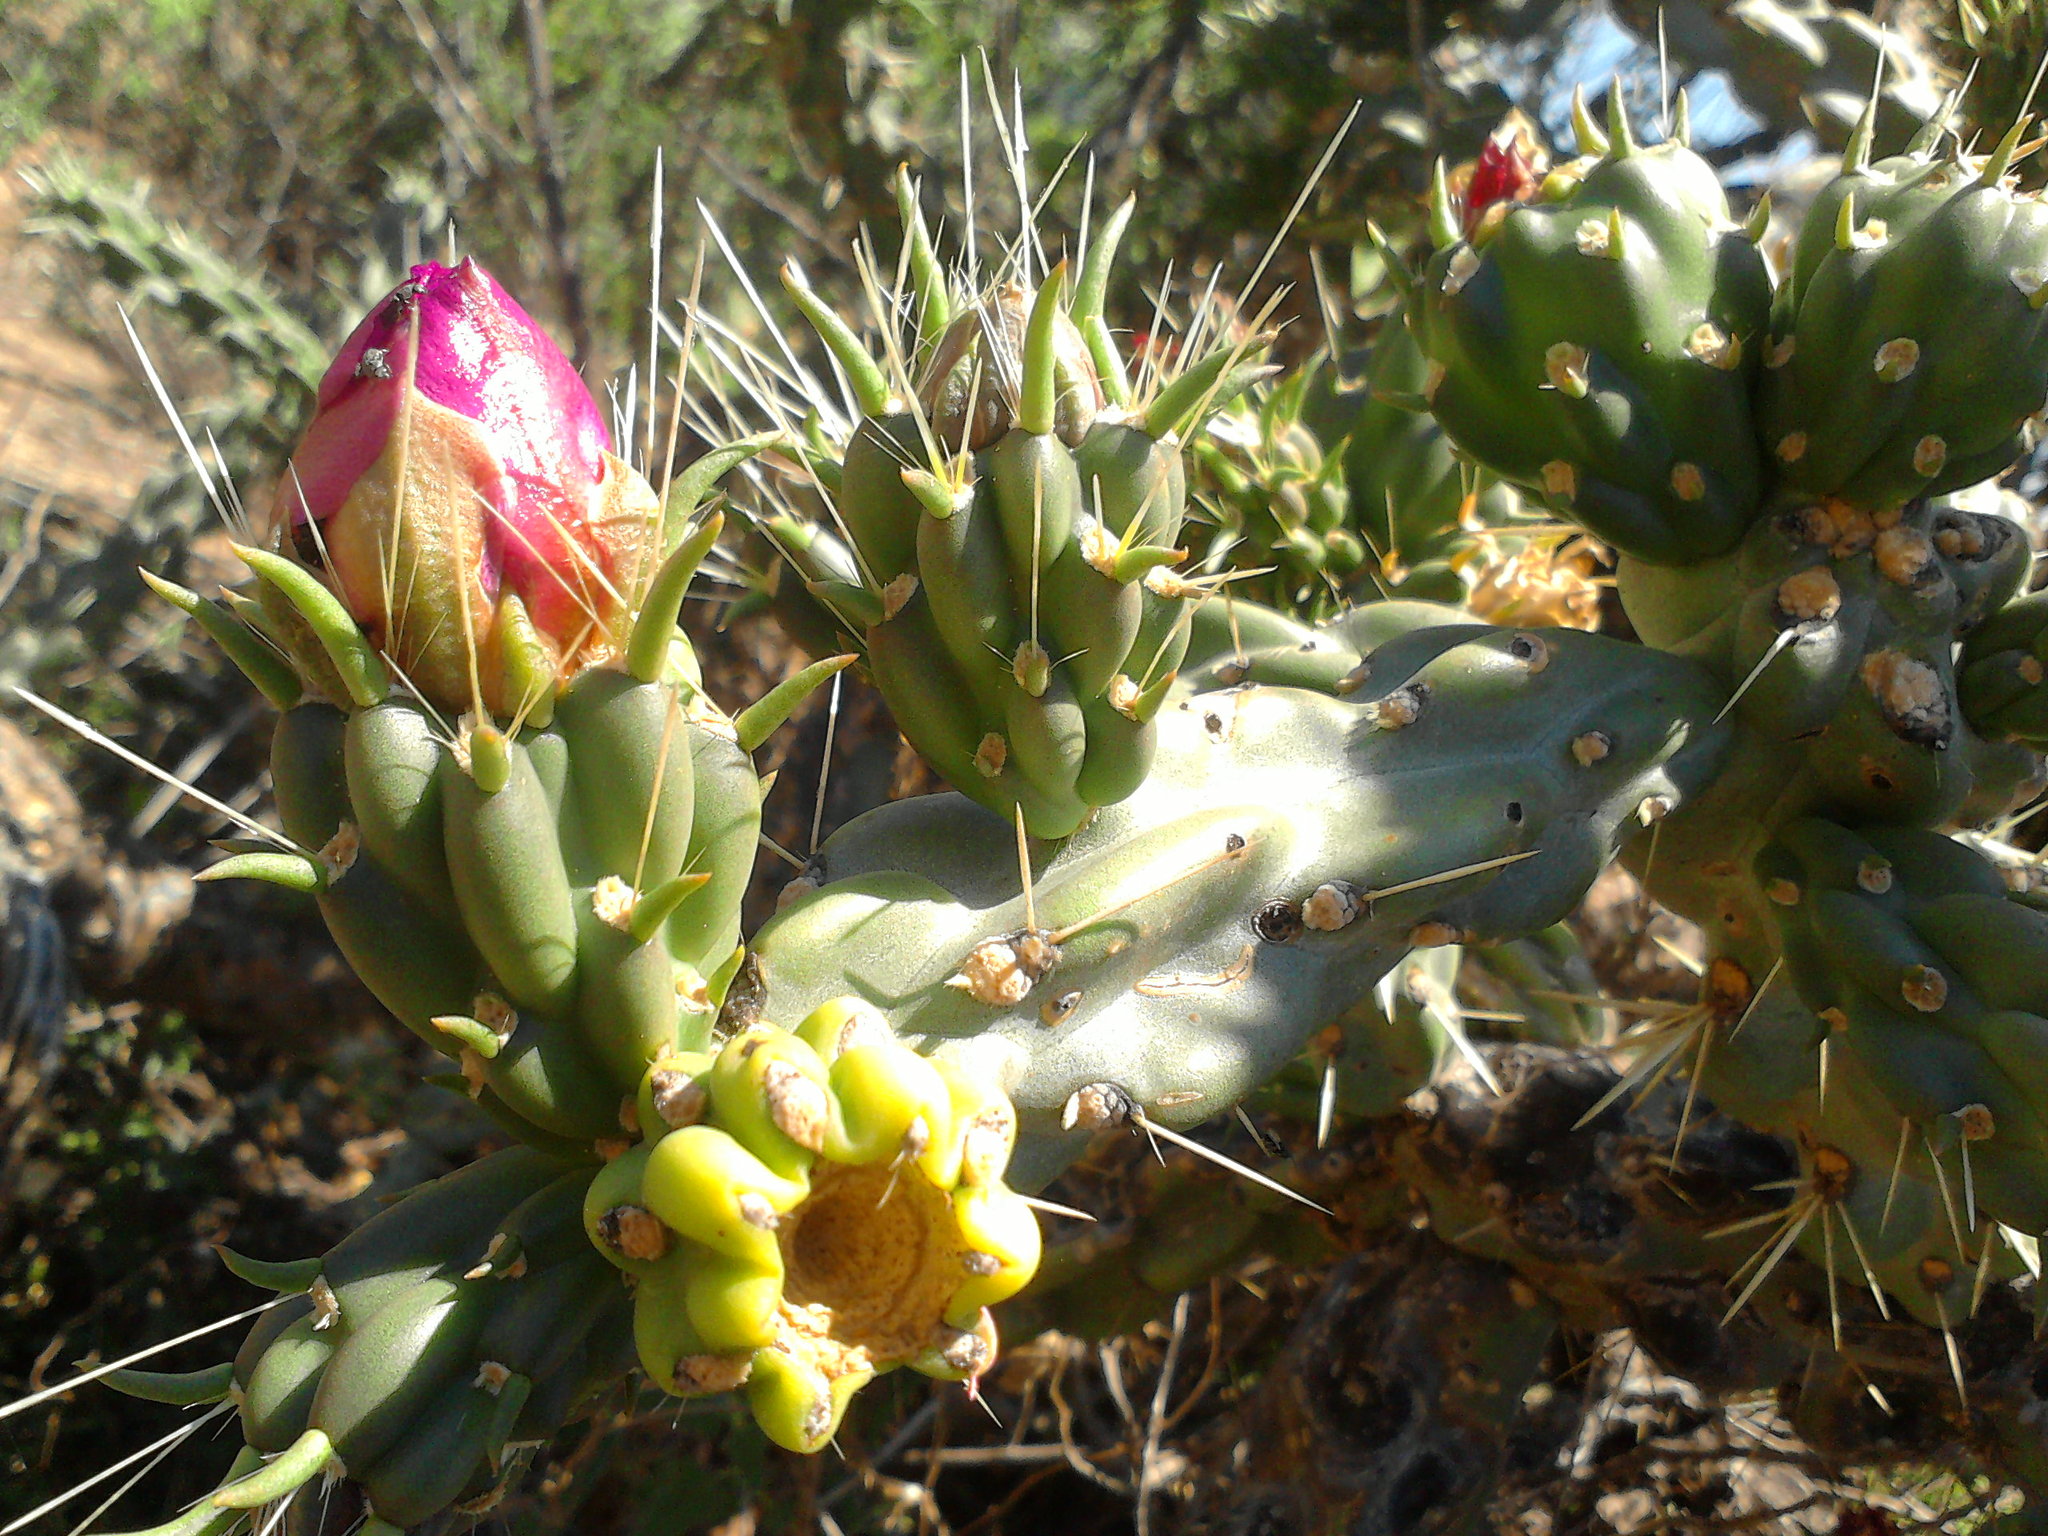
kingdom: Plantae
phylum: Tracheophyta
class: Magnoliopsida
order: Caryophyllales
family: Cactaceae
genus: Cylindropuntia
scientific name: Cylindropuntia imbricata
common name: Candelabrum cactus
